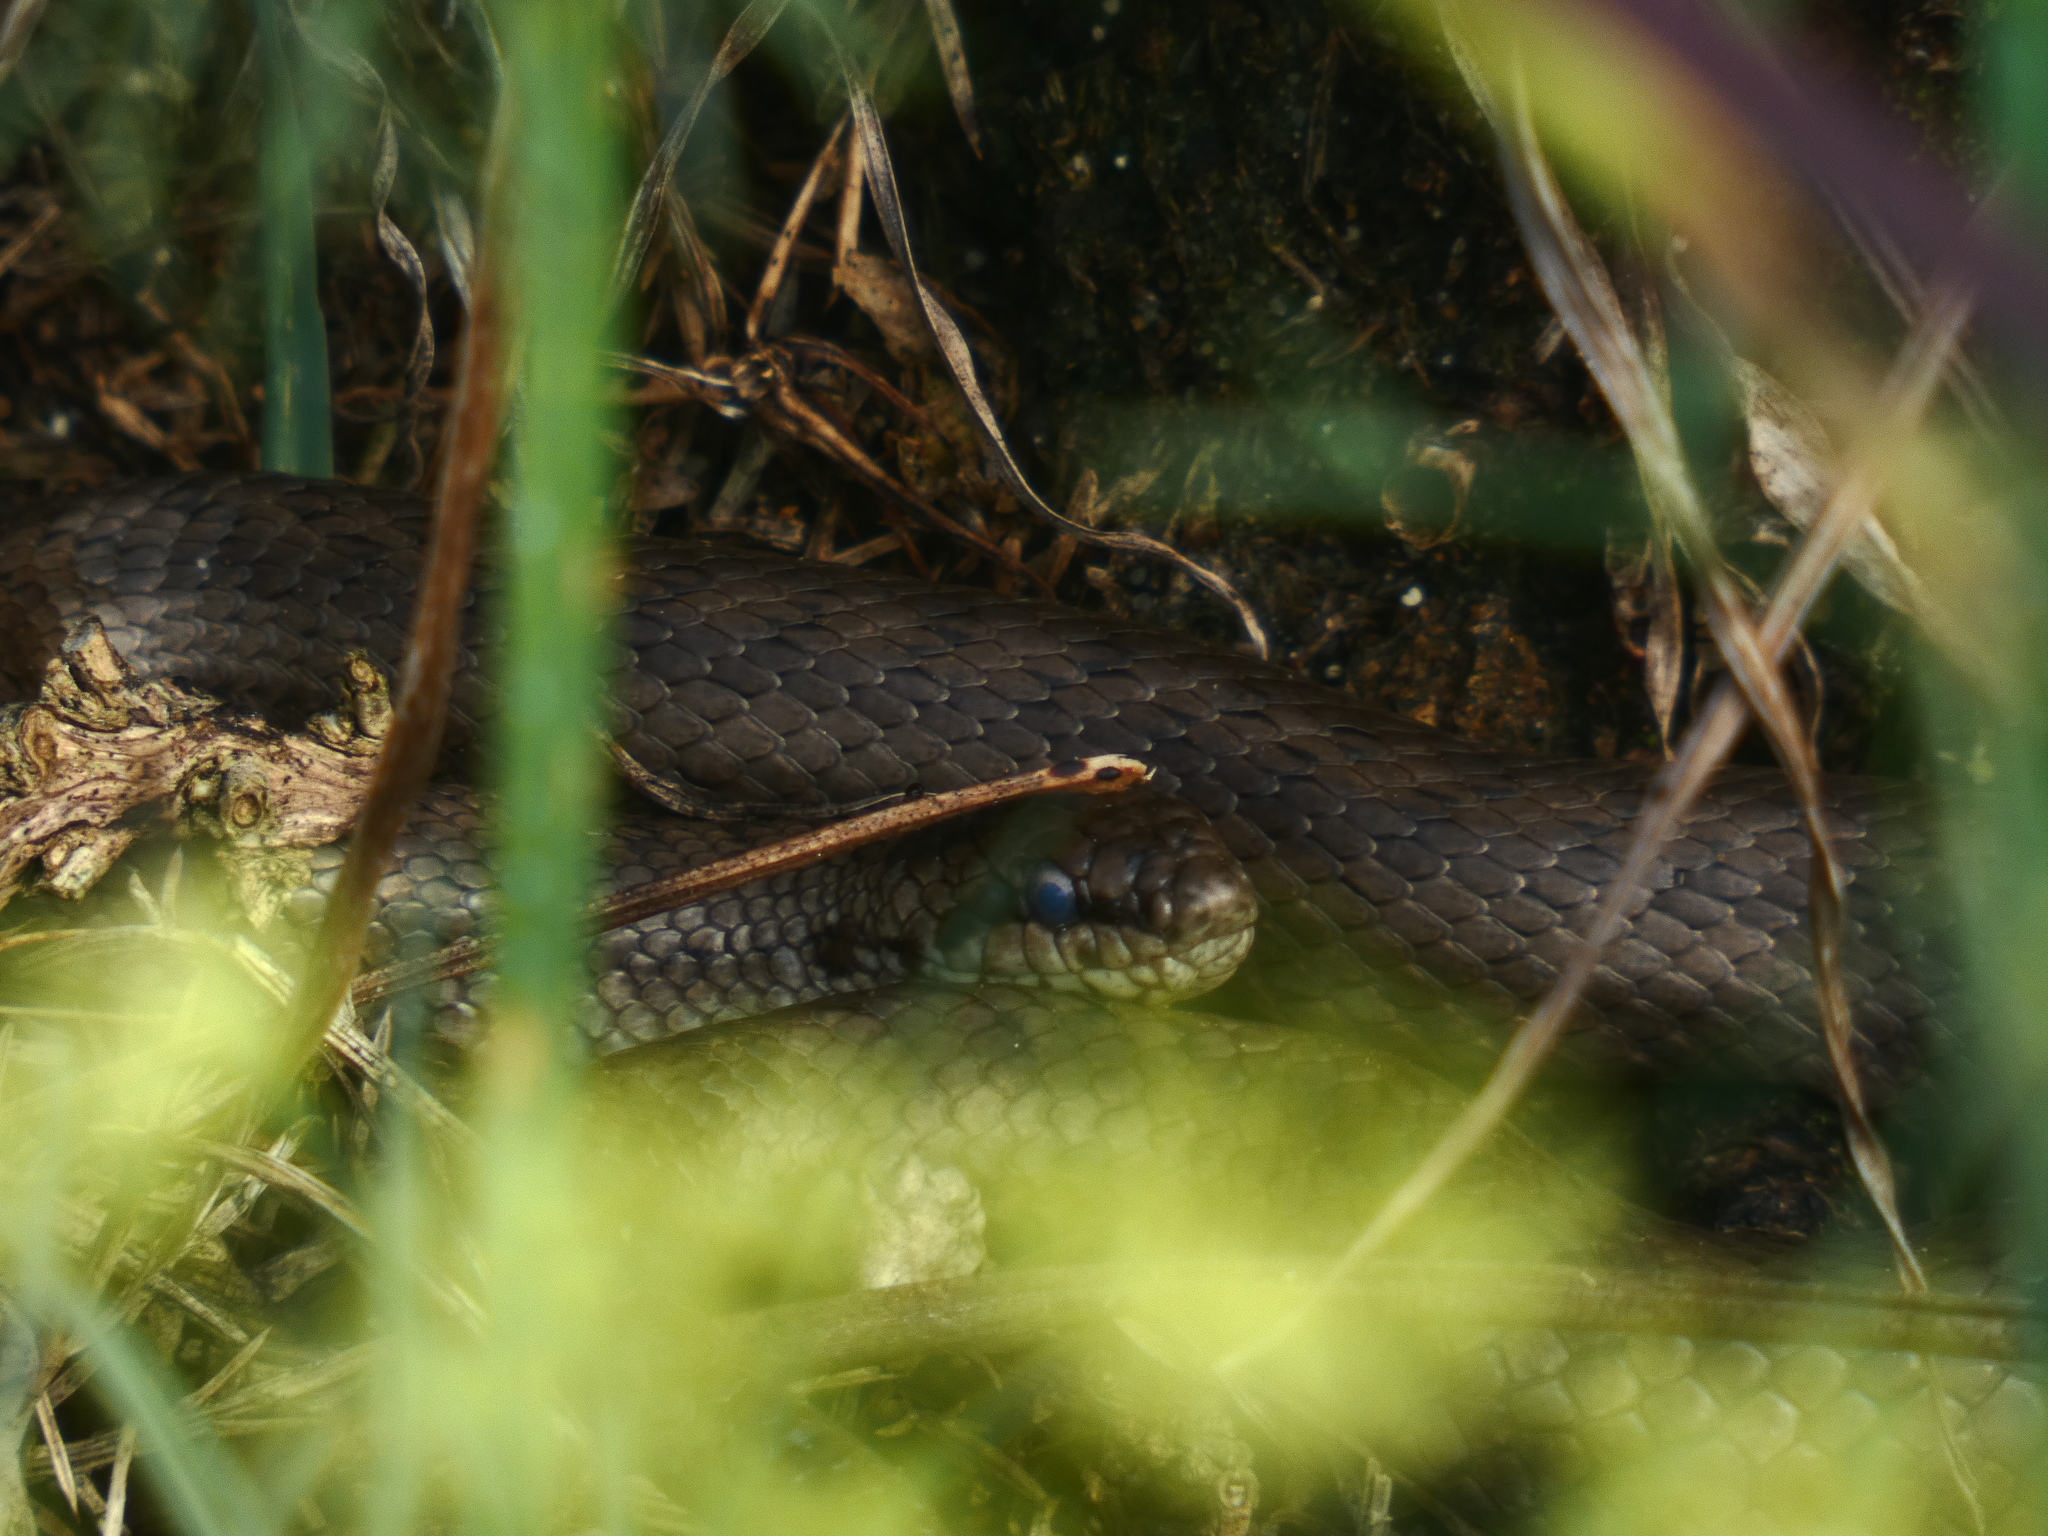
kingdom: Animalia
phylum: Chordata
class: Squamata
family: Colubridae
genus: Coronella
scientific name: Coronella austriaca
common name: Smooth snake
